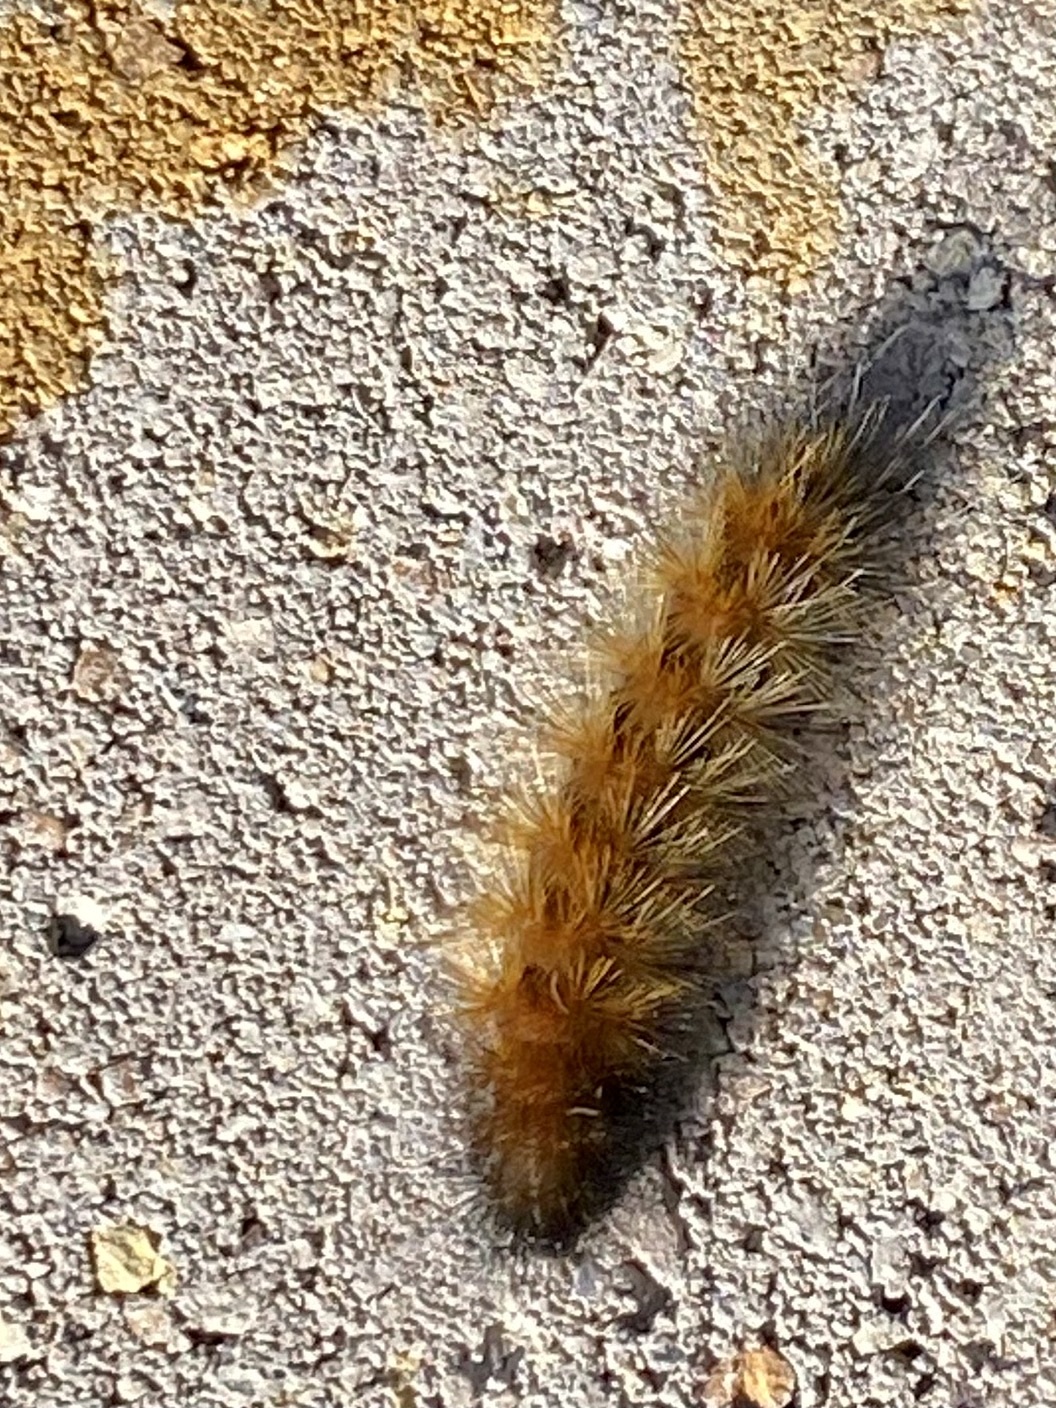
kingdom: Animalia
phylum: Arthropoda
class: Insecta
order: Lepidoptera
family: Erebidae
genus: Spilosoma
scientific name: Spilosoma virginica
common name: Virginia tiger moth
